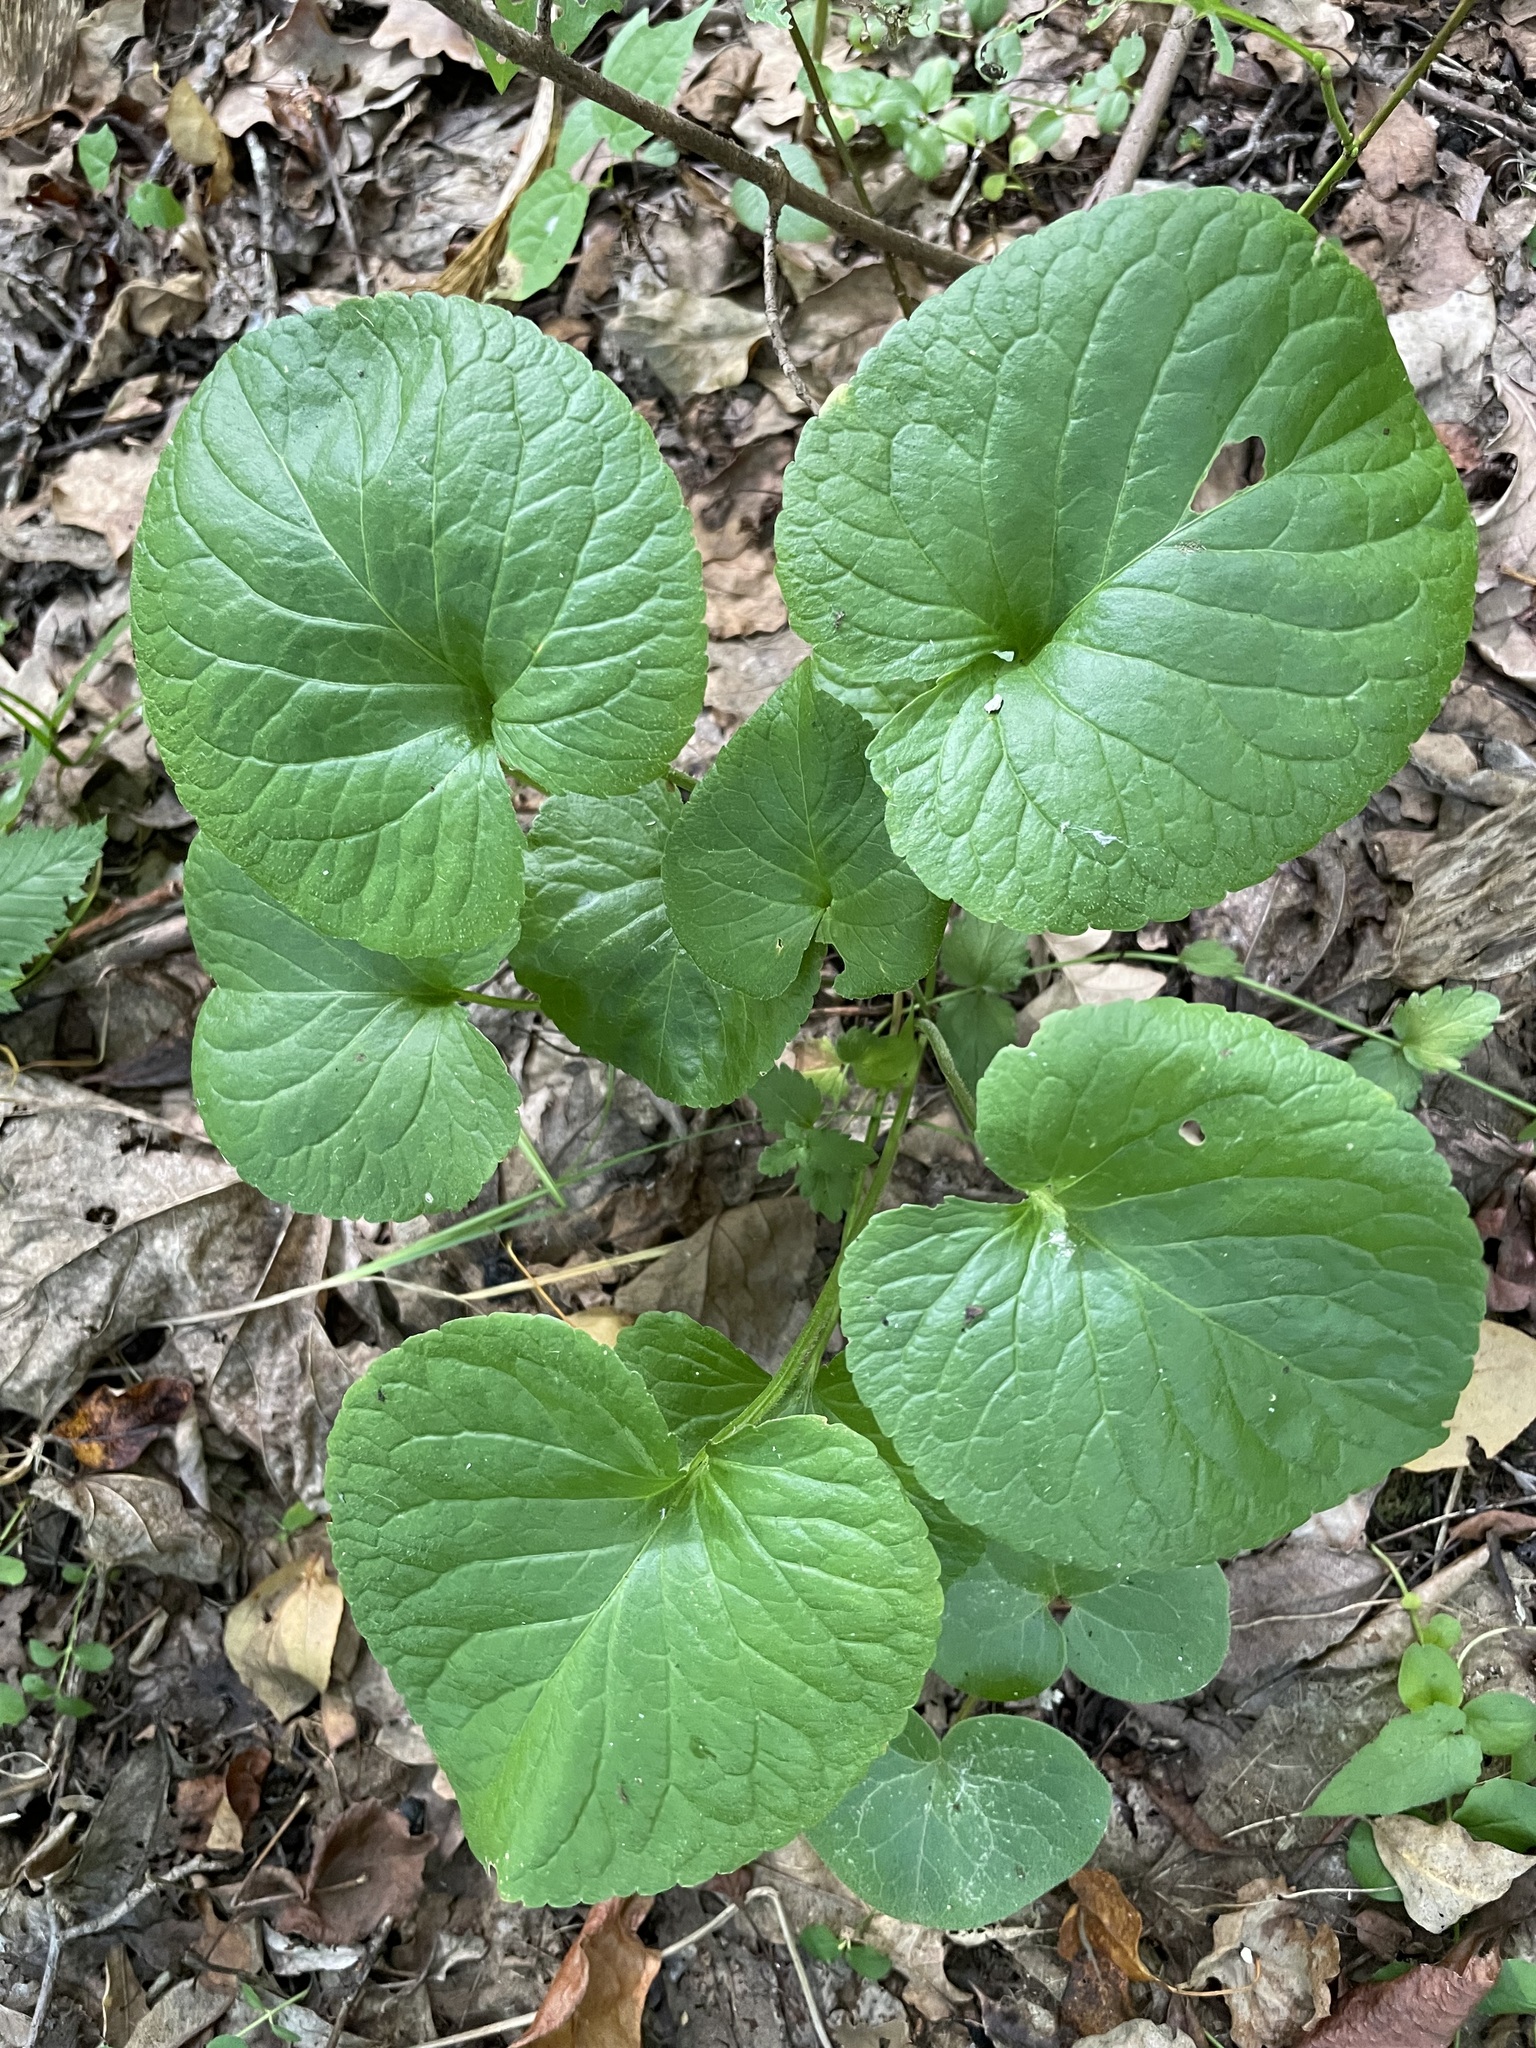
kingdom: Plantae
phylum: Tracheophyta
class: Magnoliopsida
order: Malpighiales
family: Violaceae
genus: Viola
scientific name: Viola mirabilis
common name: Wonder violet
